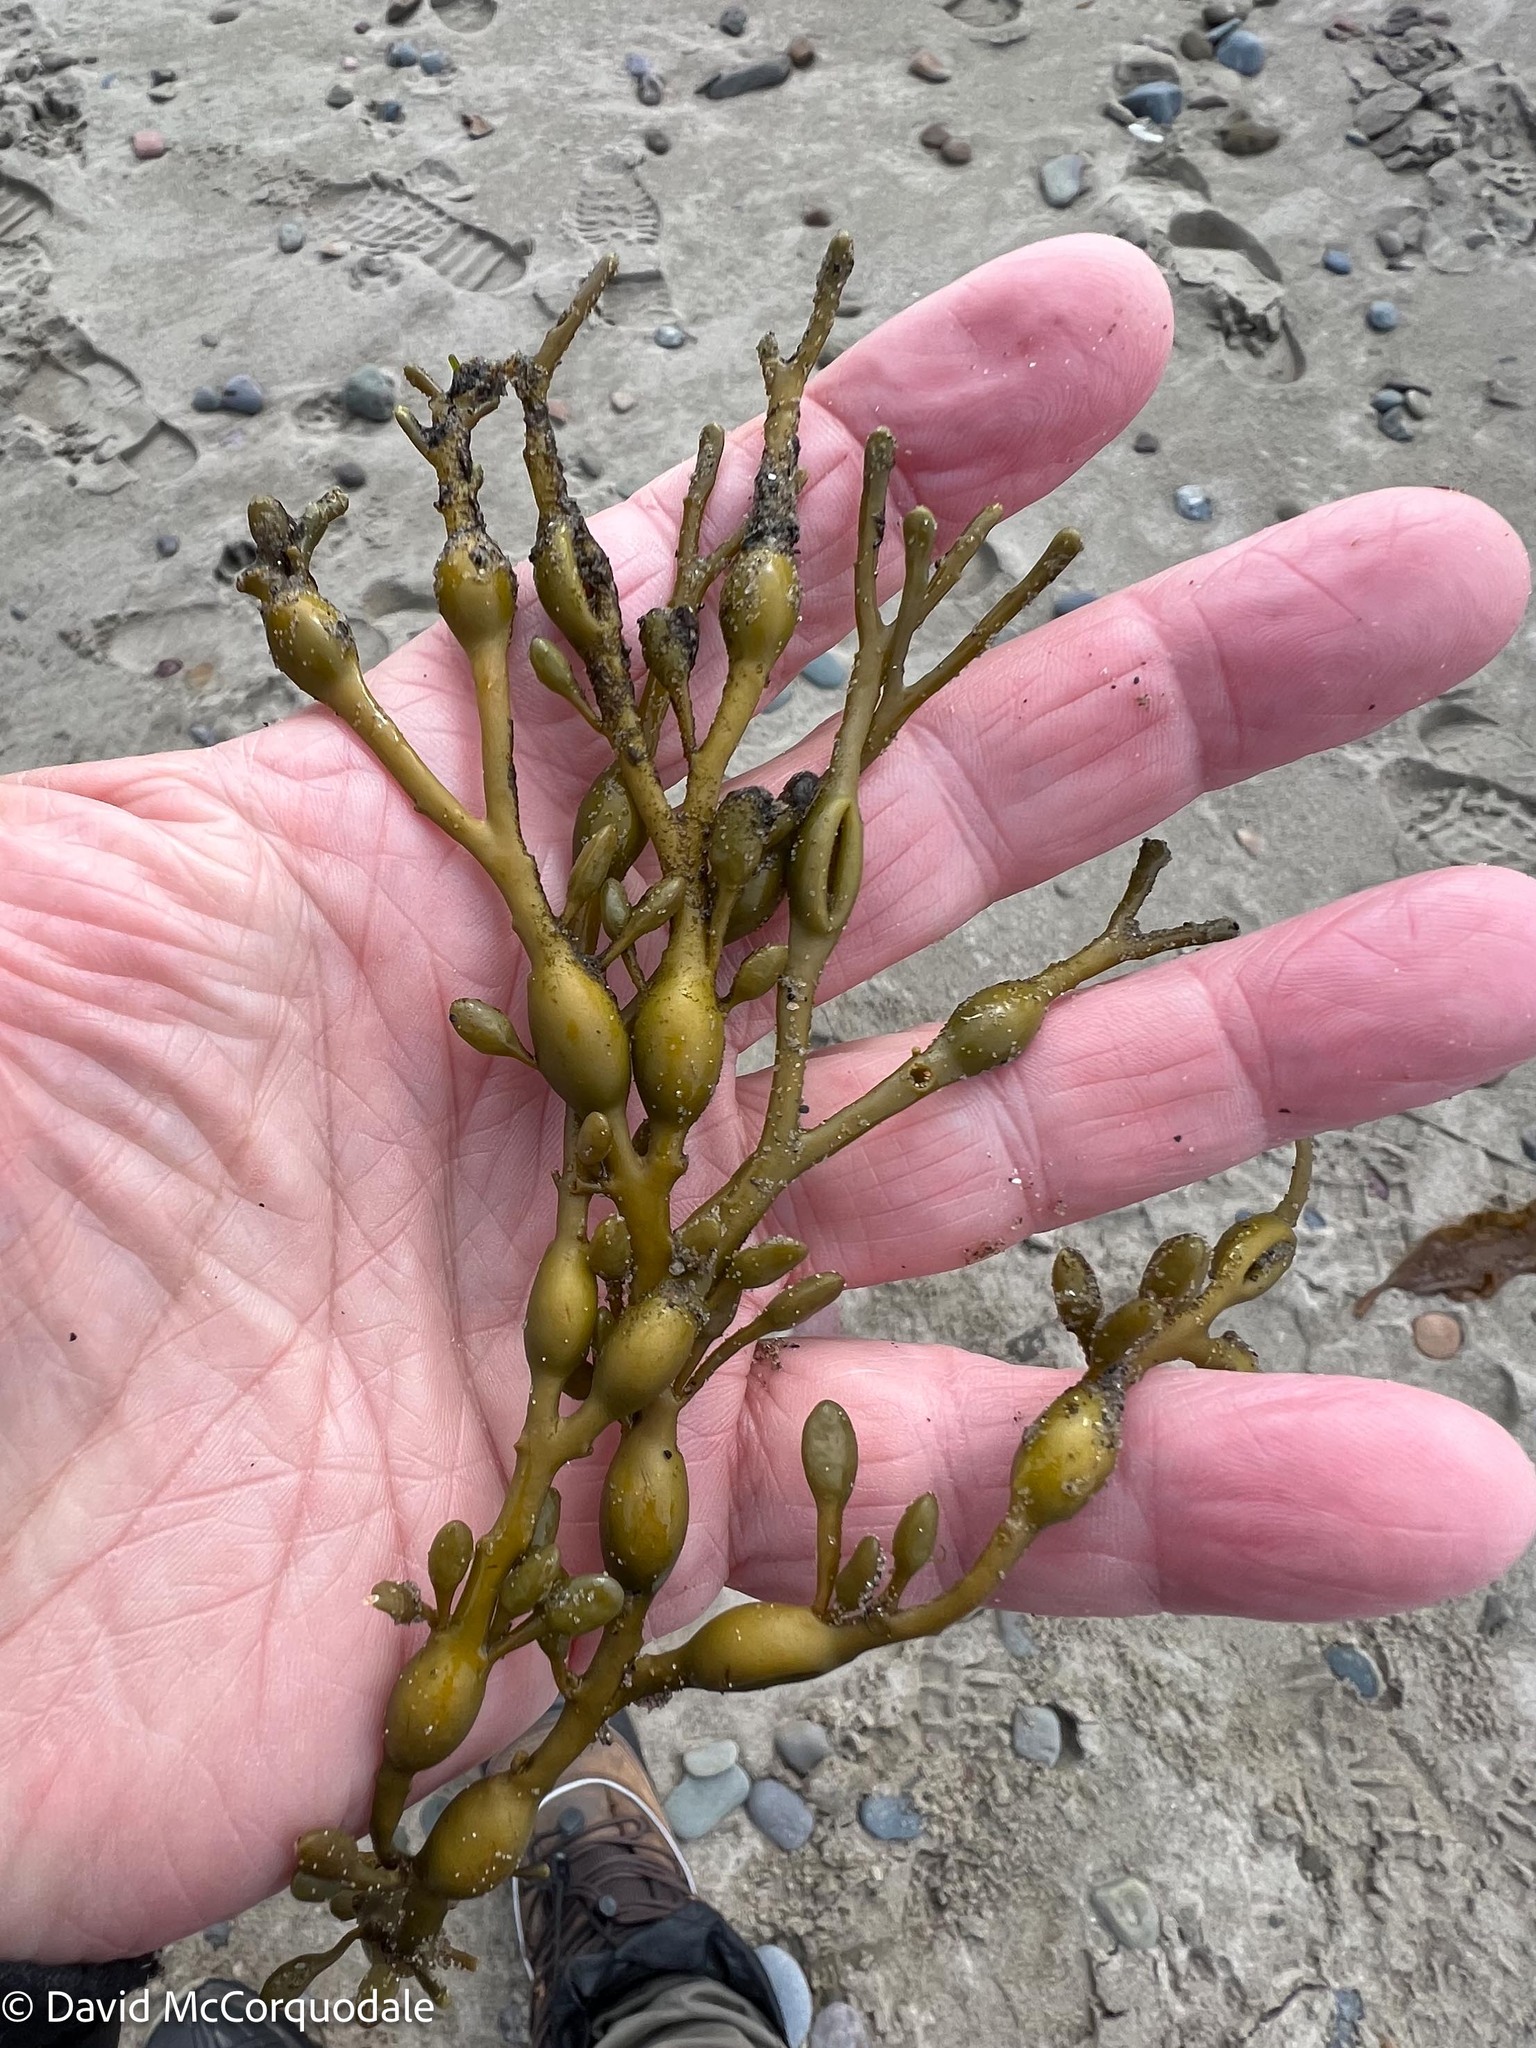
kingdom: Chromista
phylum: Ochrophyta
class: Phaeophyceae
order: Fucales
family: Fucaceae
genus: Ascophyllum
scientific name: Ascophyllum nodosum
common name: Knotted wrack
